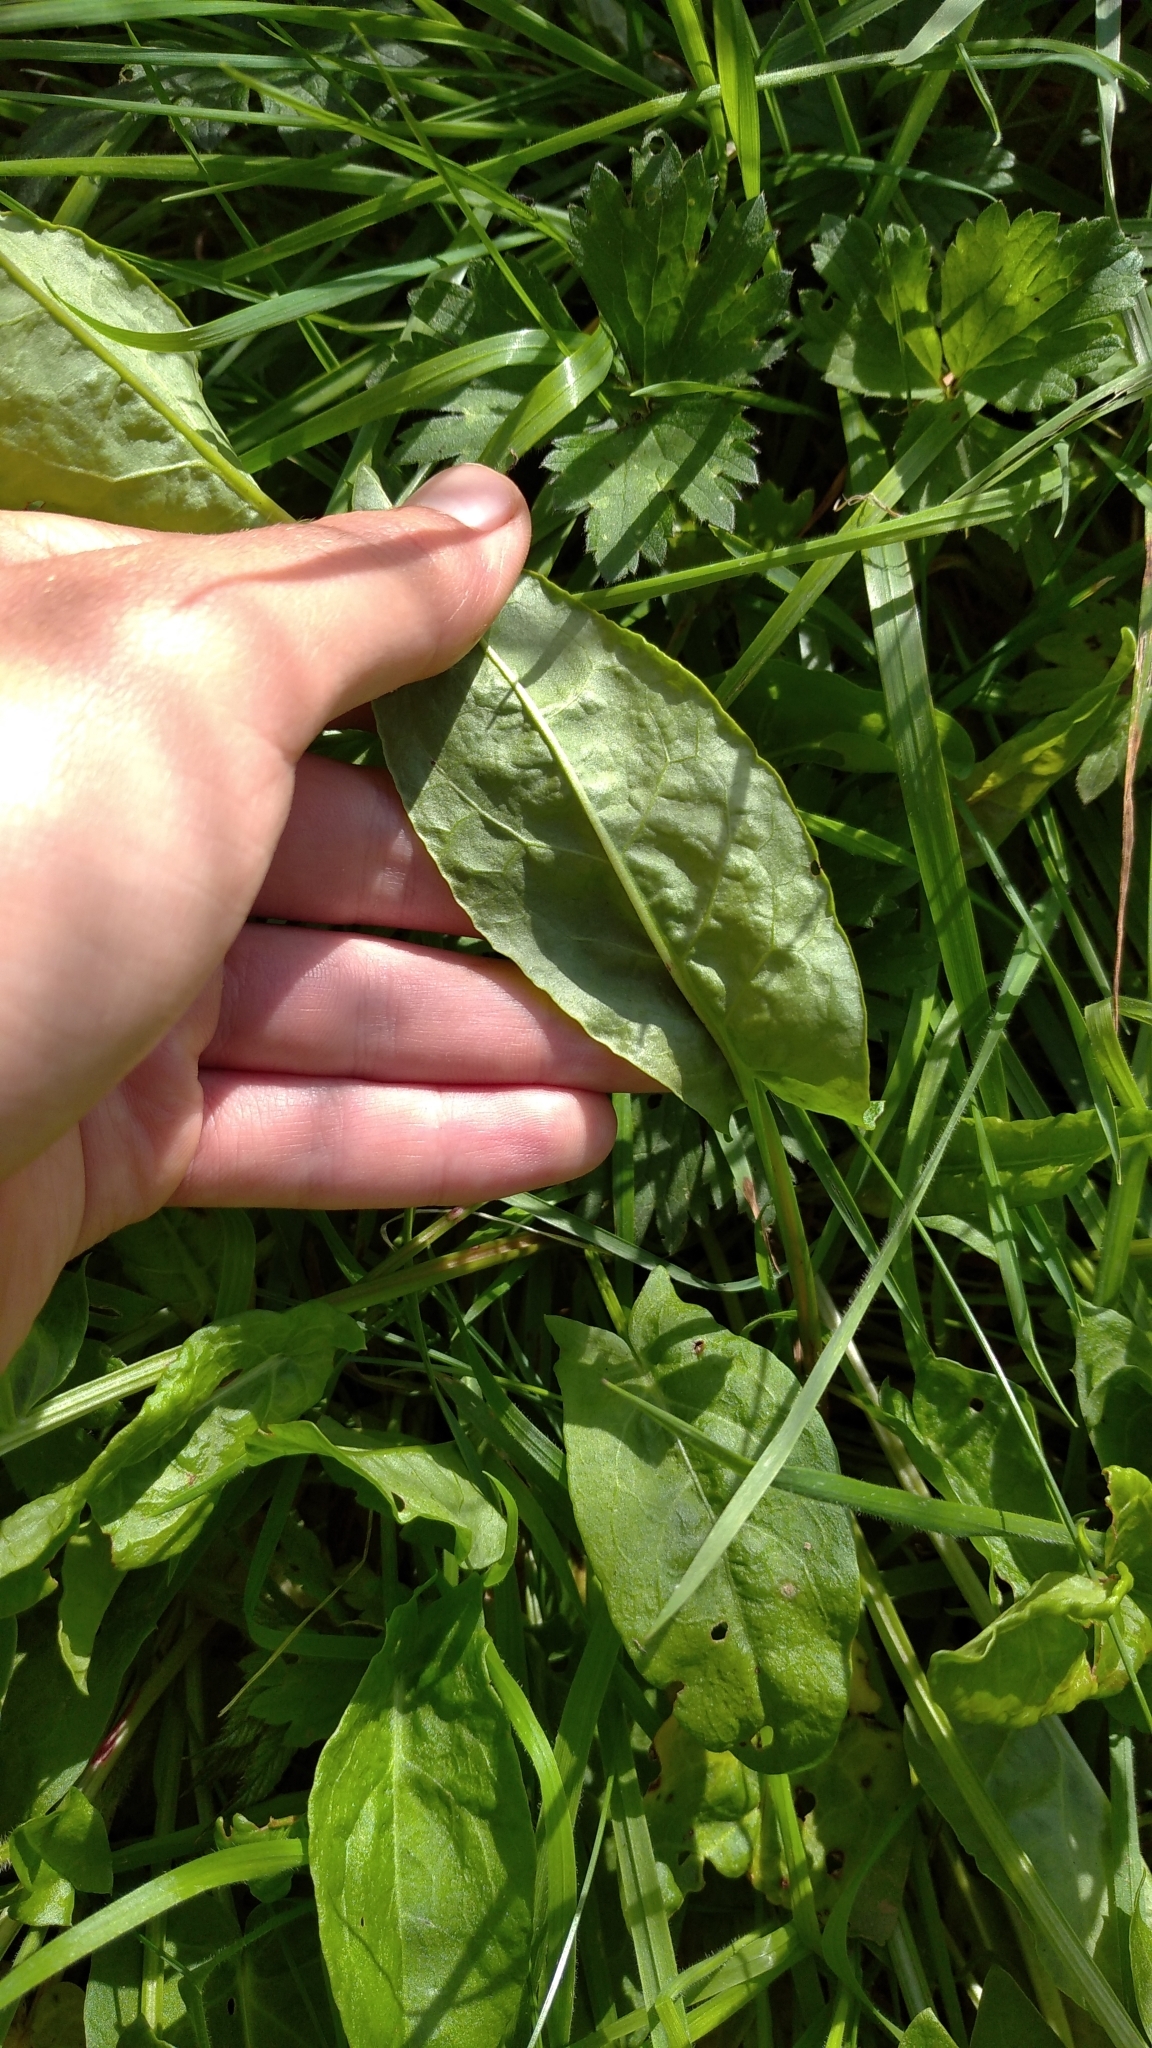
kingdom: Plantae
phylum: Tracheophyta
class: Magnoliopsida
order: Caryophyllales
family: Polygonaceae
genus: Rumex
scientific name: Rumex acetosa
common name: Garden sorrel
